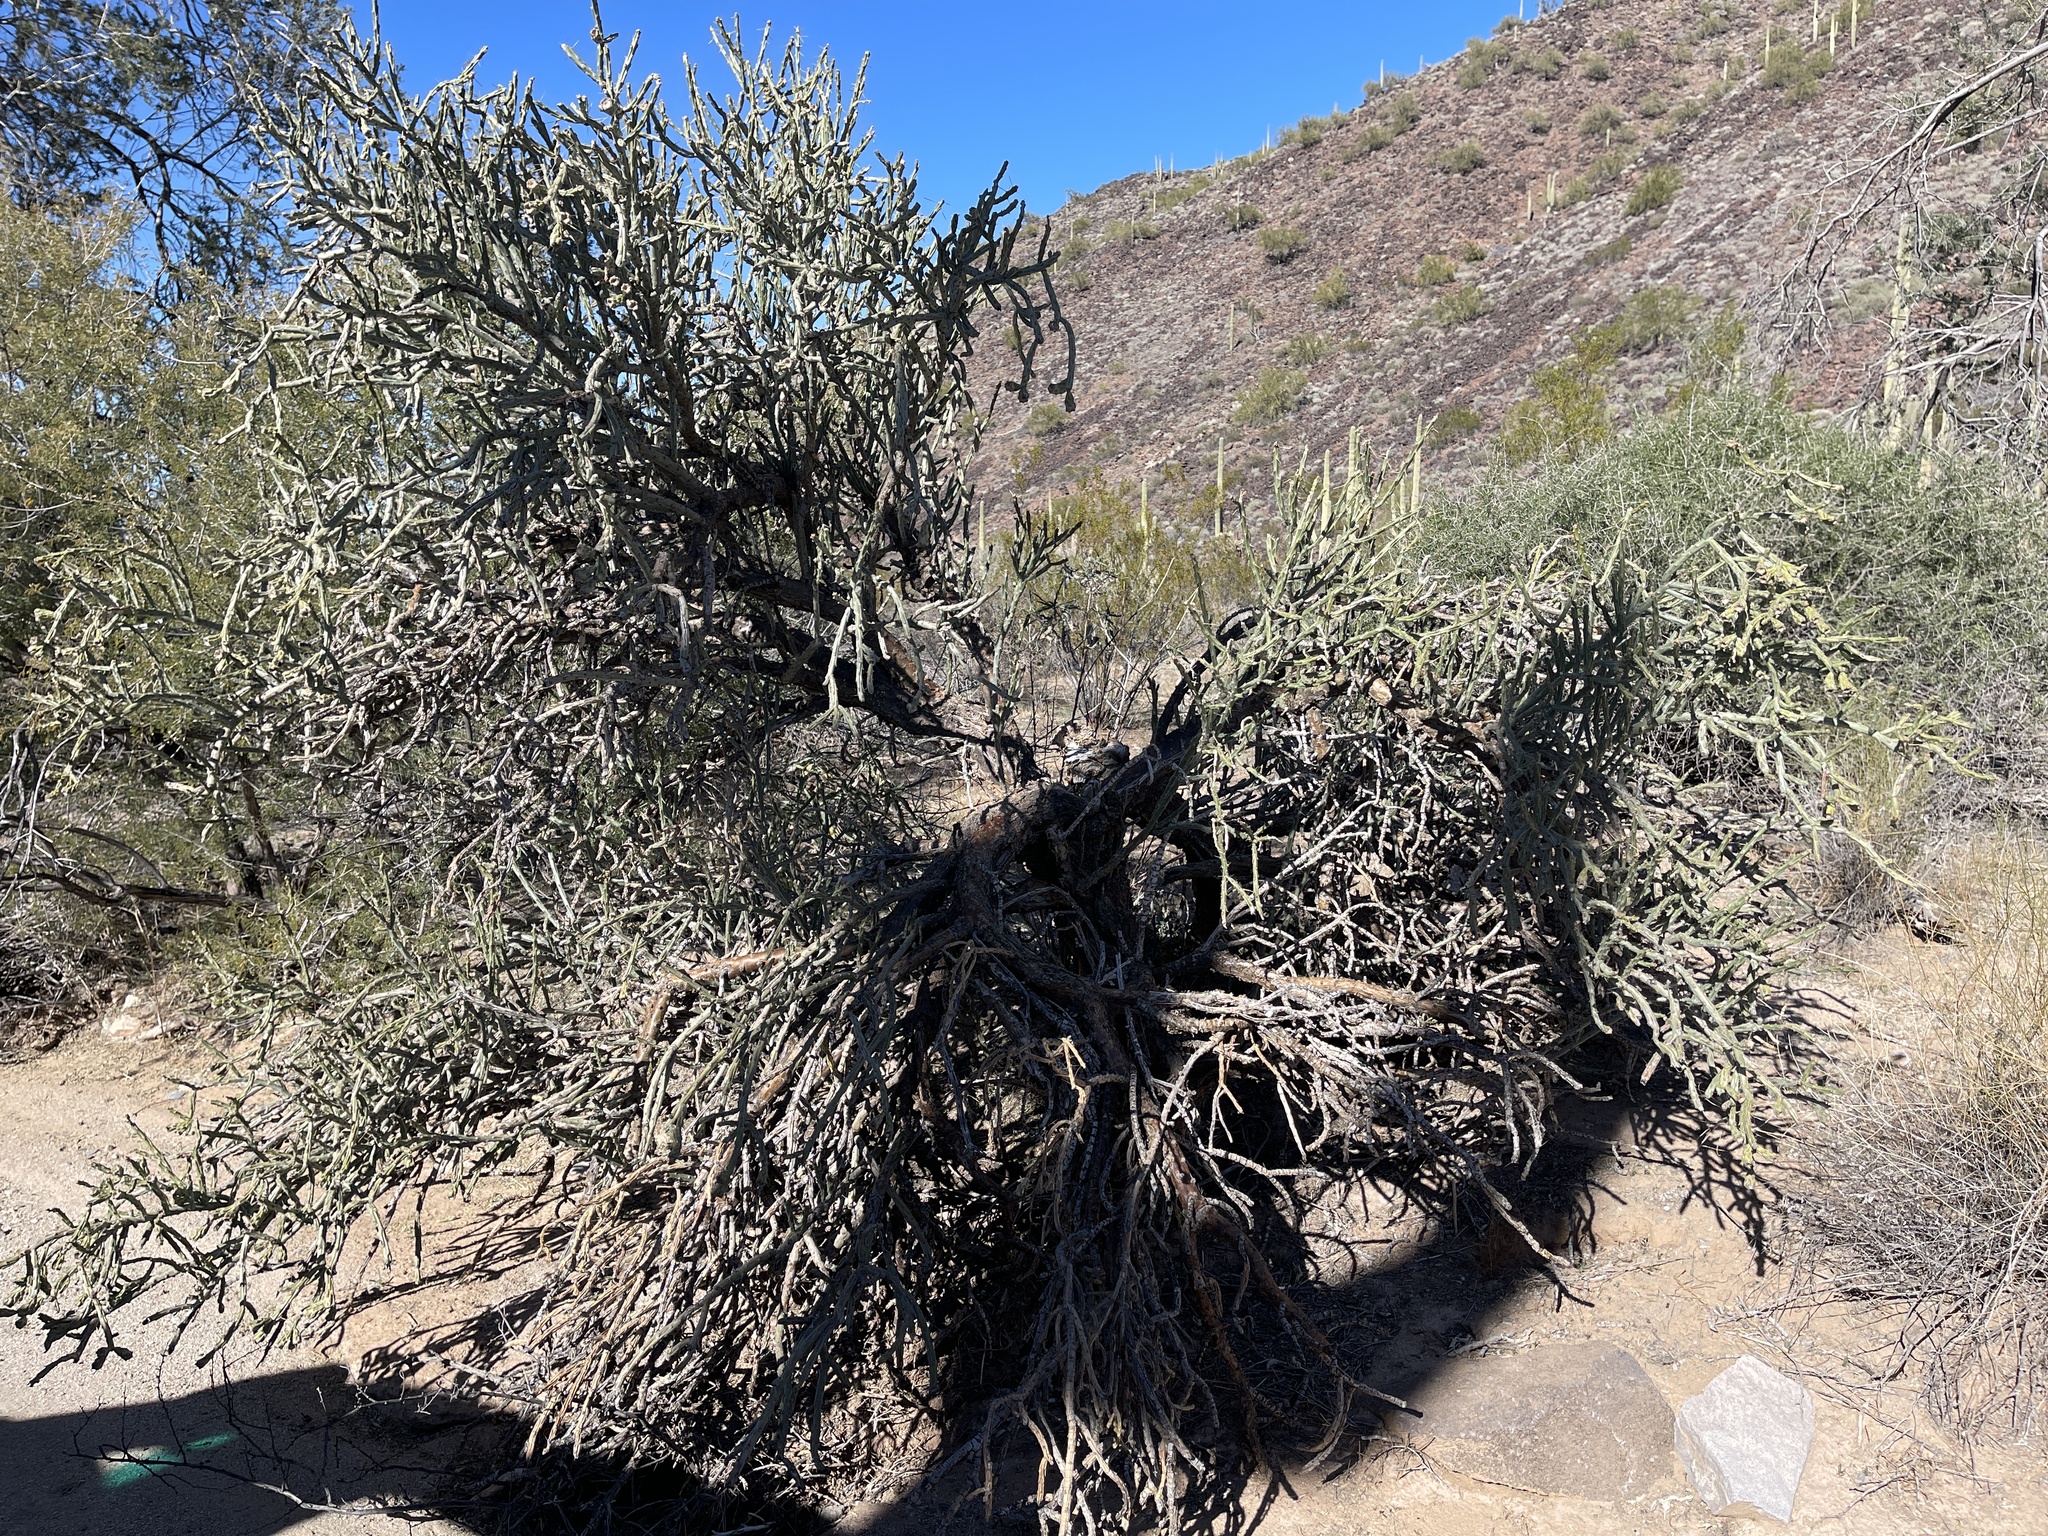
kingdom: Plantae
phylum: Tracheophyta
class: Magnoliopsida
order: Caryophyllales
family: Cactaceae
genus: Cylindropuntia
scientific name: Cylindropuntia arbuscula
